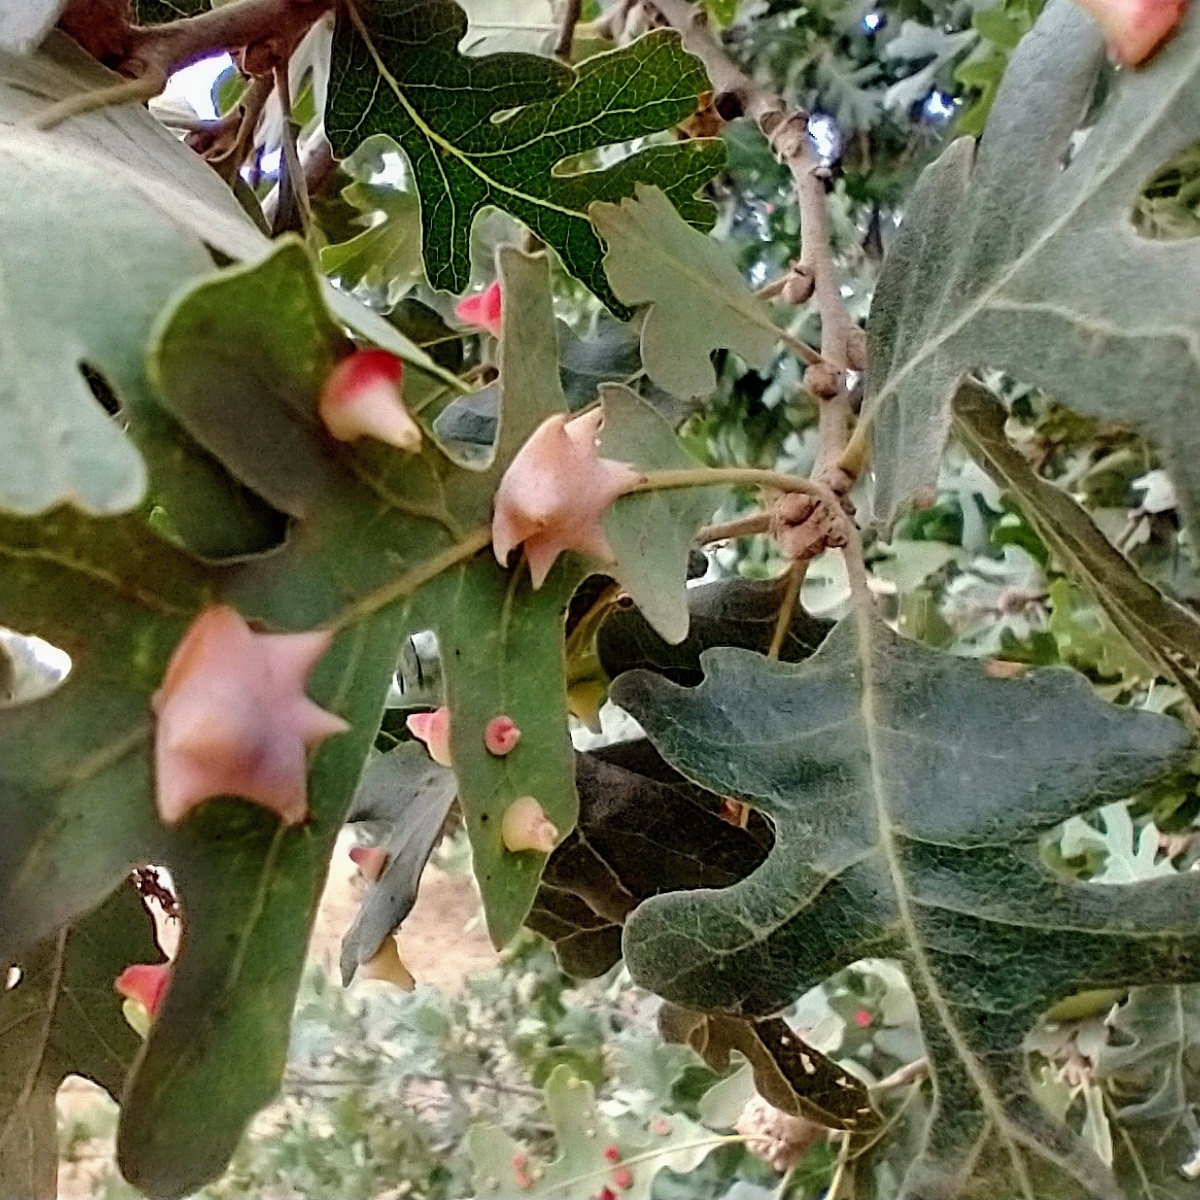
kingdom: Animalia
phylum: Arthropoda
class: Insecta
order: Hymenoptera
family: Cynipidae
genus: Cynips
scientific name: Cynips douglasi
